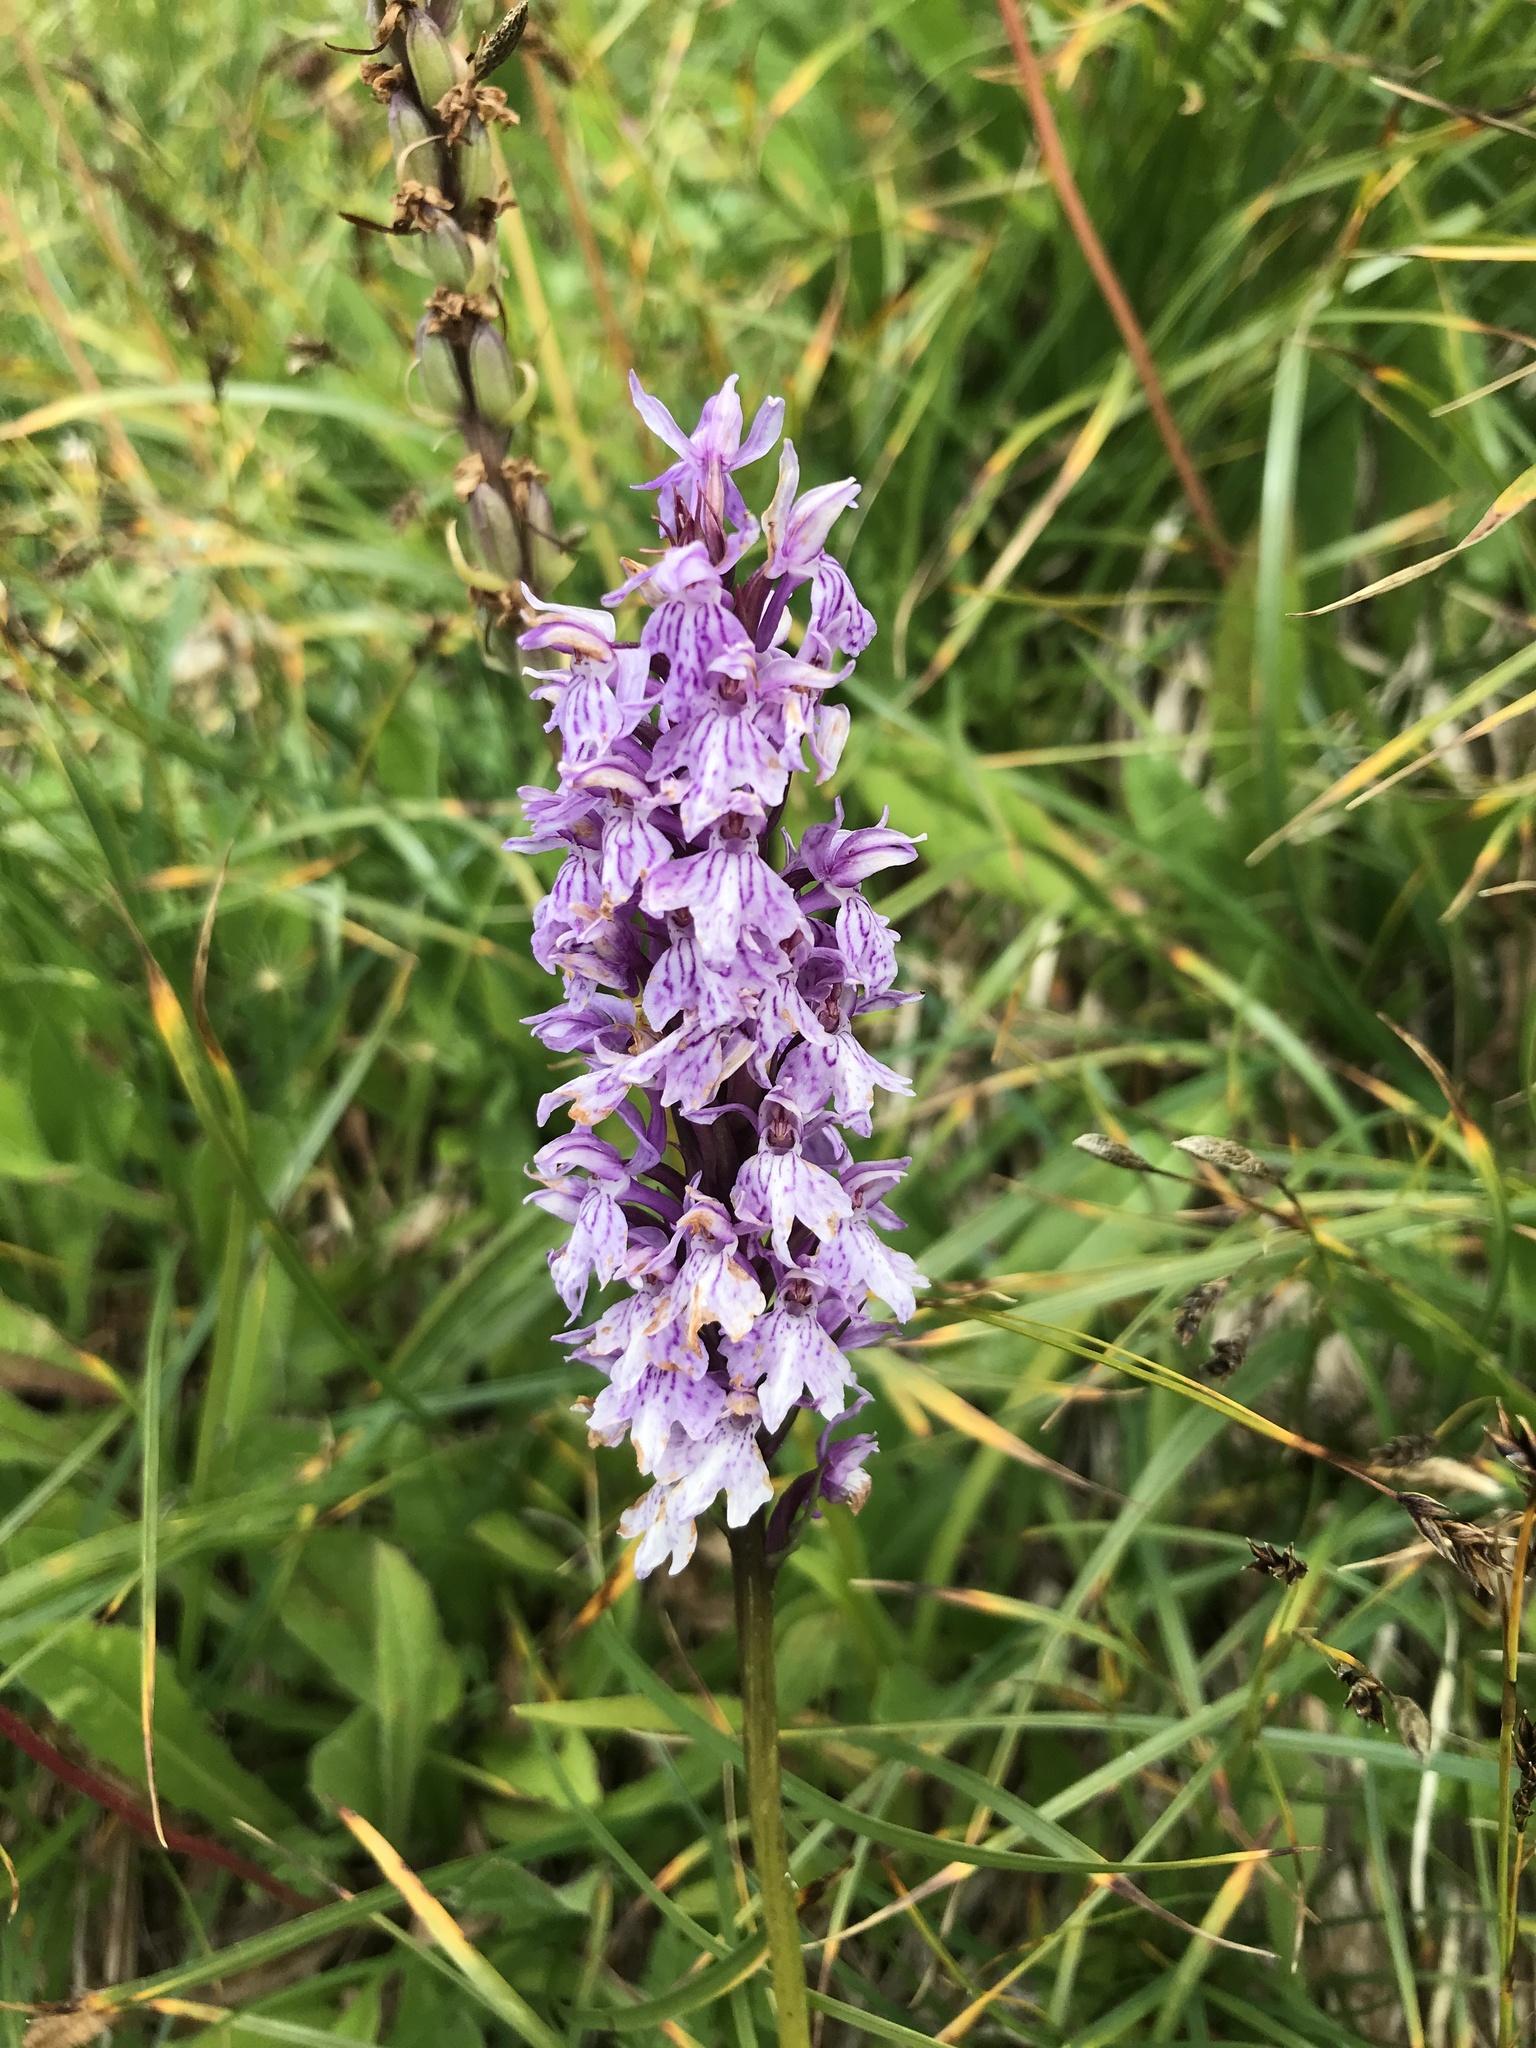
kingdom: Plantae
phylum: Tracheophyta
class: Liliopsida
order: Asparagales
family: Orchidaceae
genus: Dactylorhiza
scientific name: Dactylorhiza maculata
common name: Heath spotted-orchid
